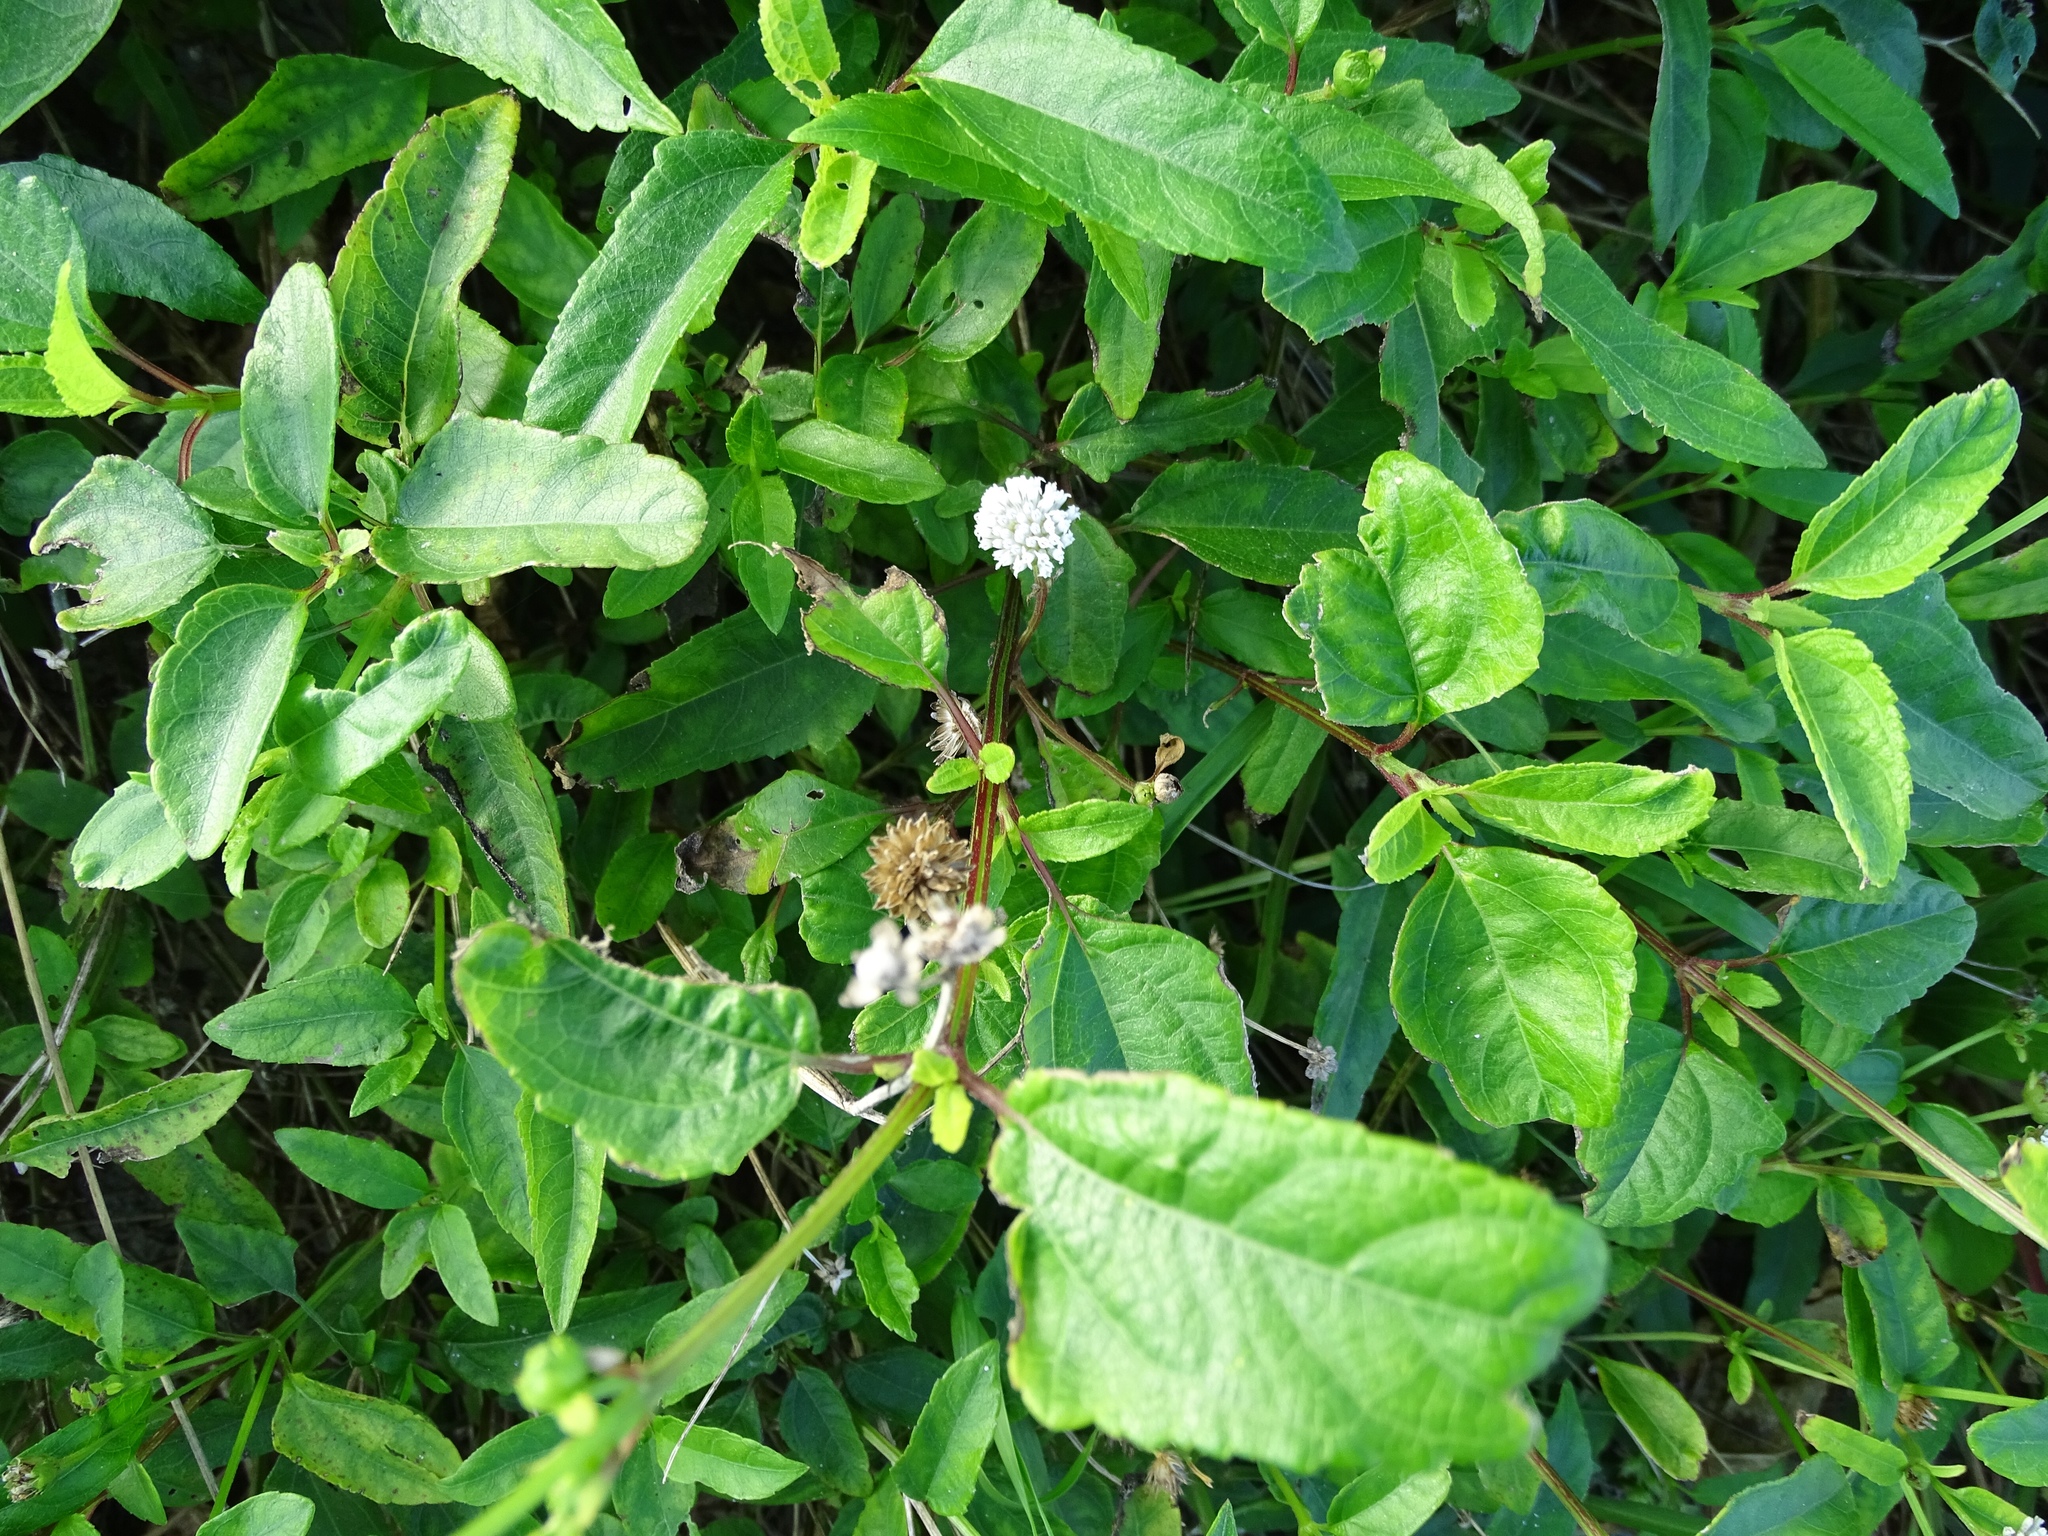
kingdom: Plantae
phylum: Tracheophyta
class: Magnoliopsida
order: Asterales
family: Asteraceae
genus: Melanthera
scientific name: Melanthera nivea
